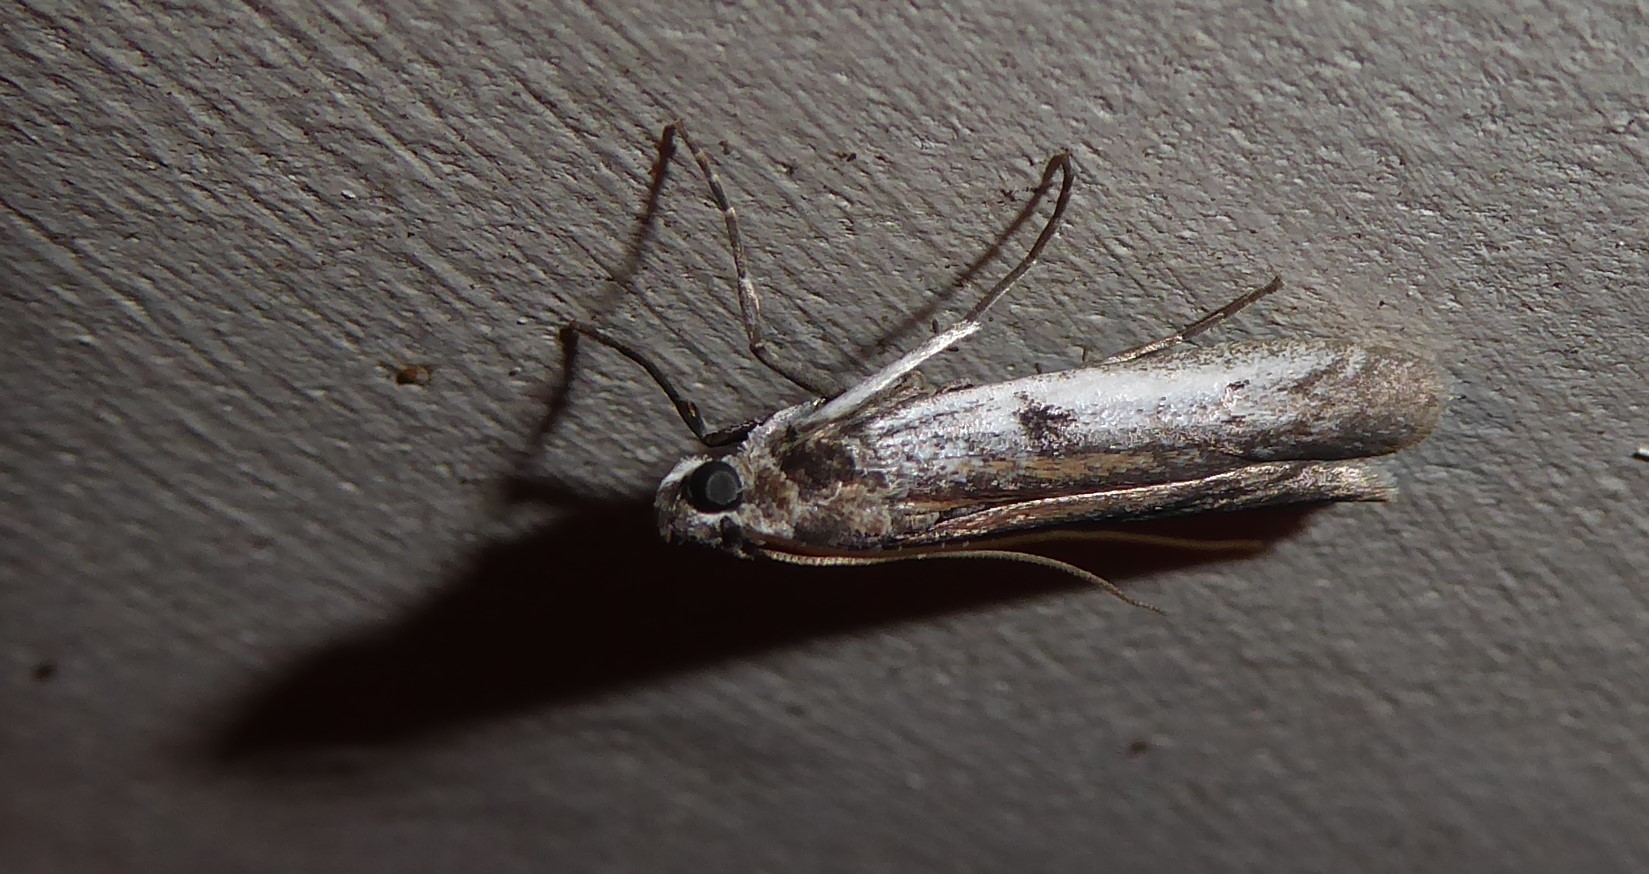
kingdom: Animalia
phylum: Arthropoda
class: Insecta
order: Lepidoptera
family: Pyralidae
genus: Patagoniodes
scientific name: Patagoniodes farinaria
